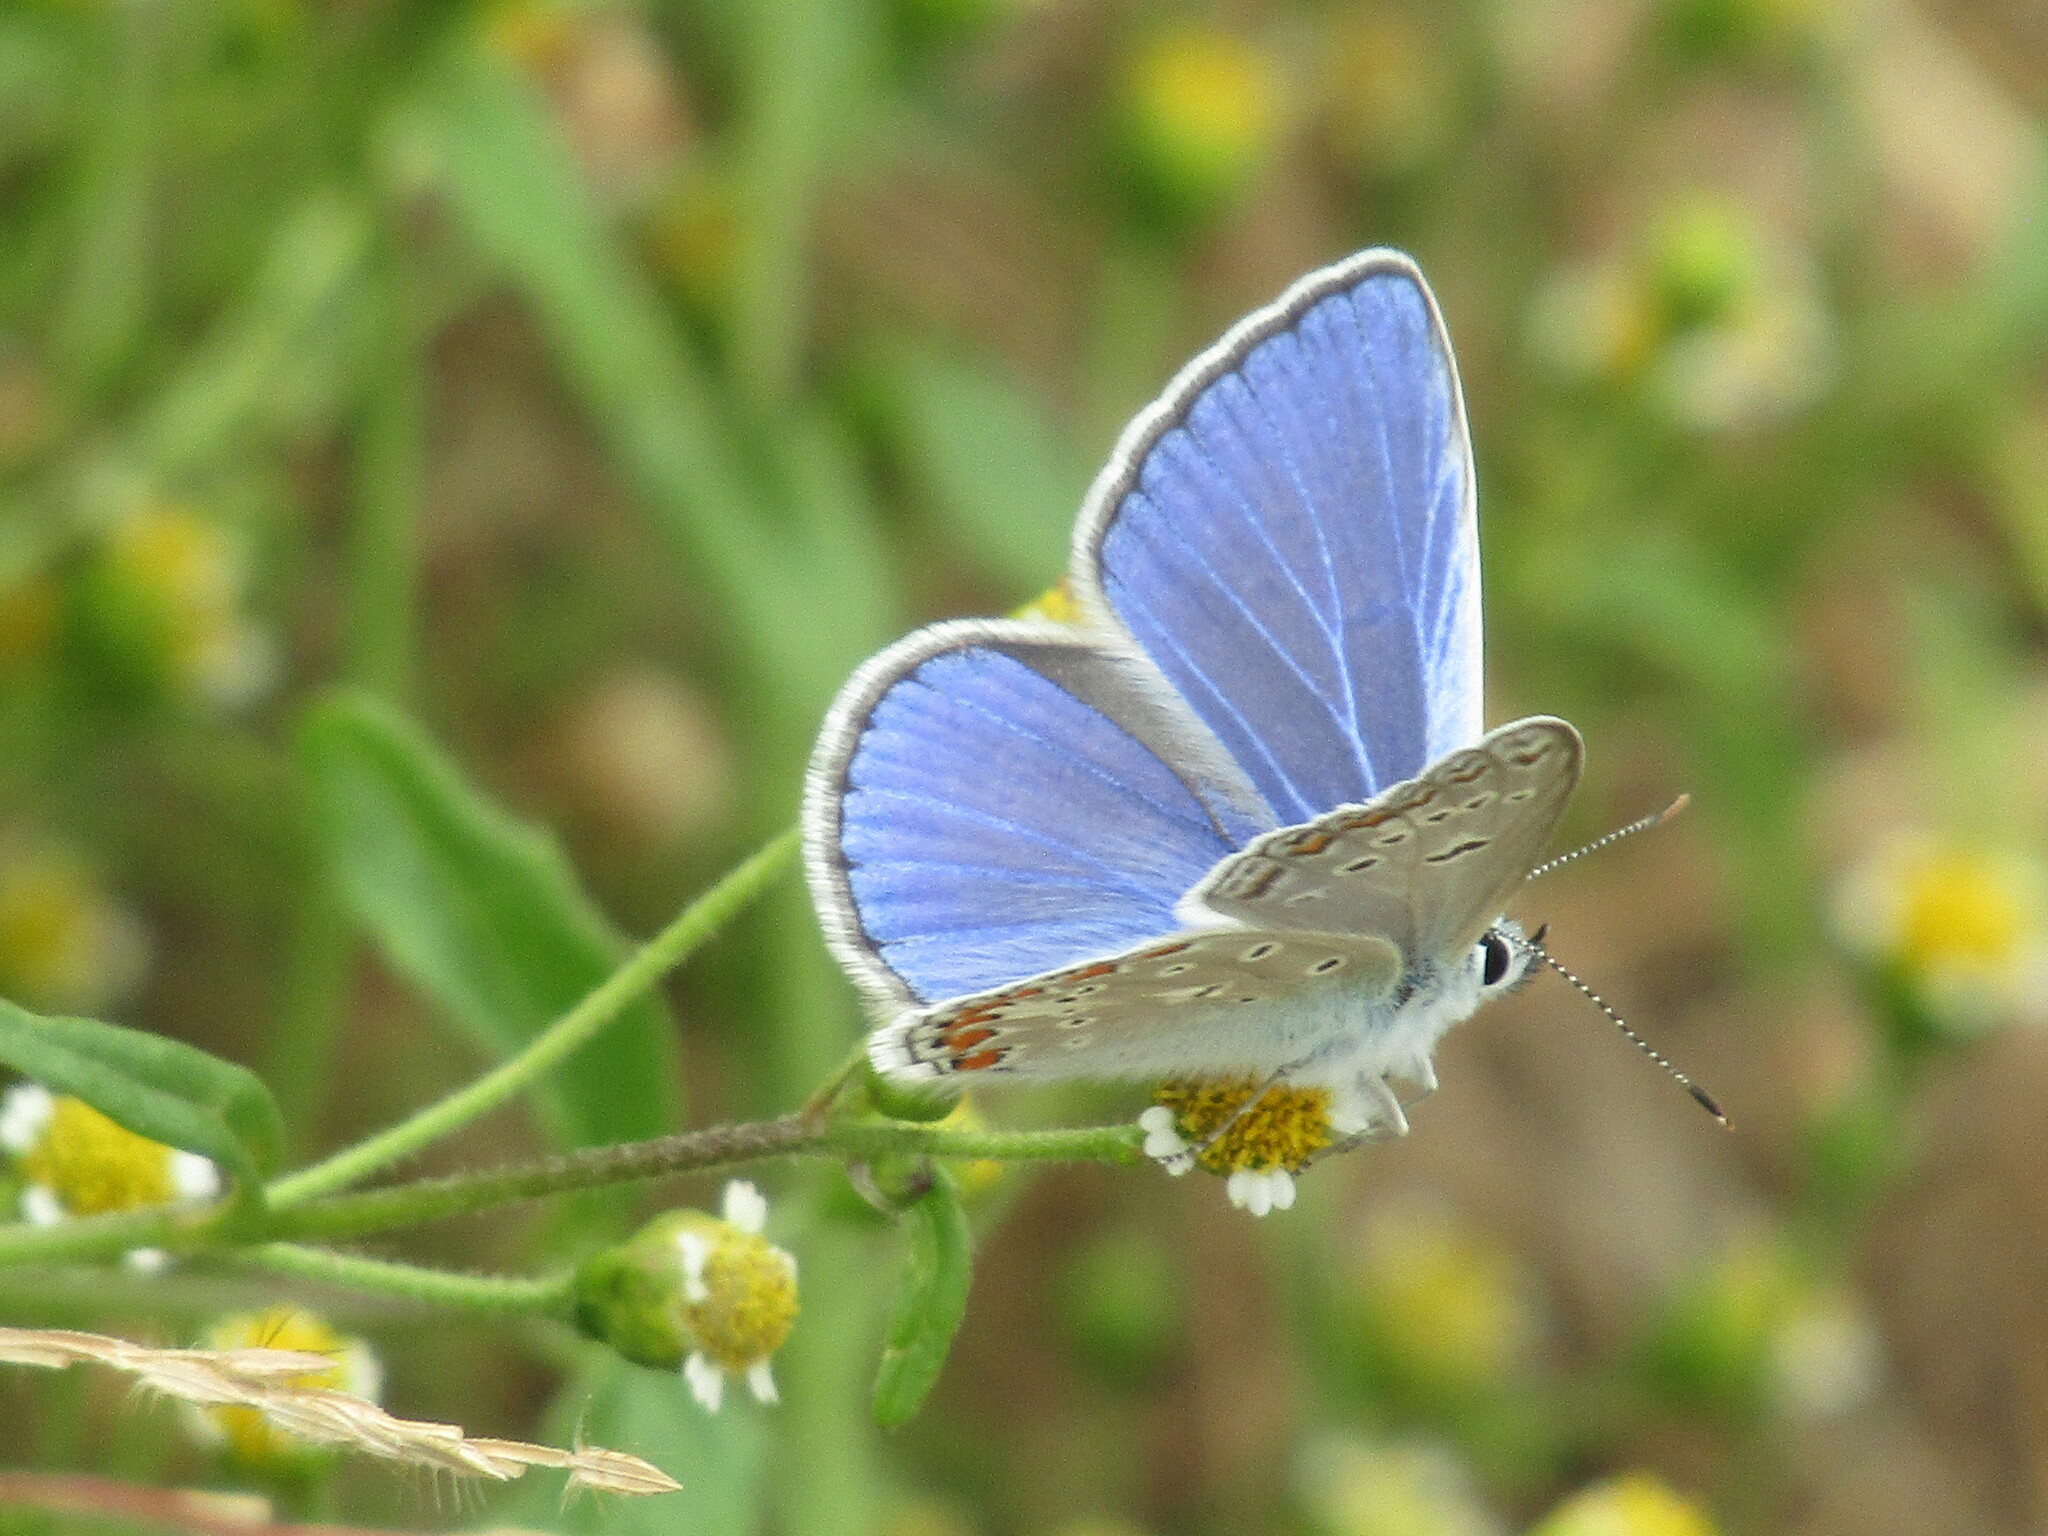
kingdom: Animalia
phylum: Arthropoda
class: Insecta
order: Lepidoptera
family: Lycaenidae
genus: Polyommatus
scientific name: Polyommatus icarus
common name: Common blue
